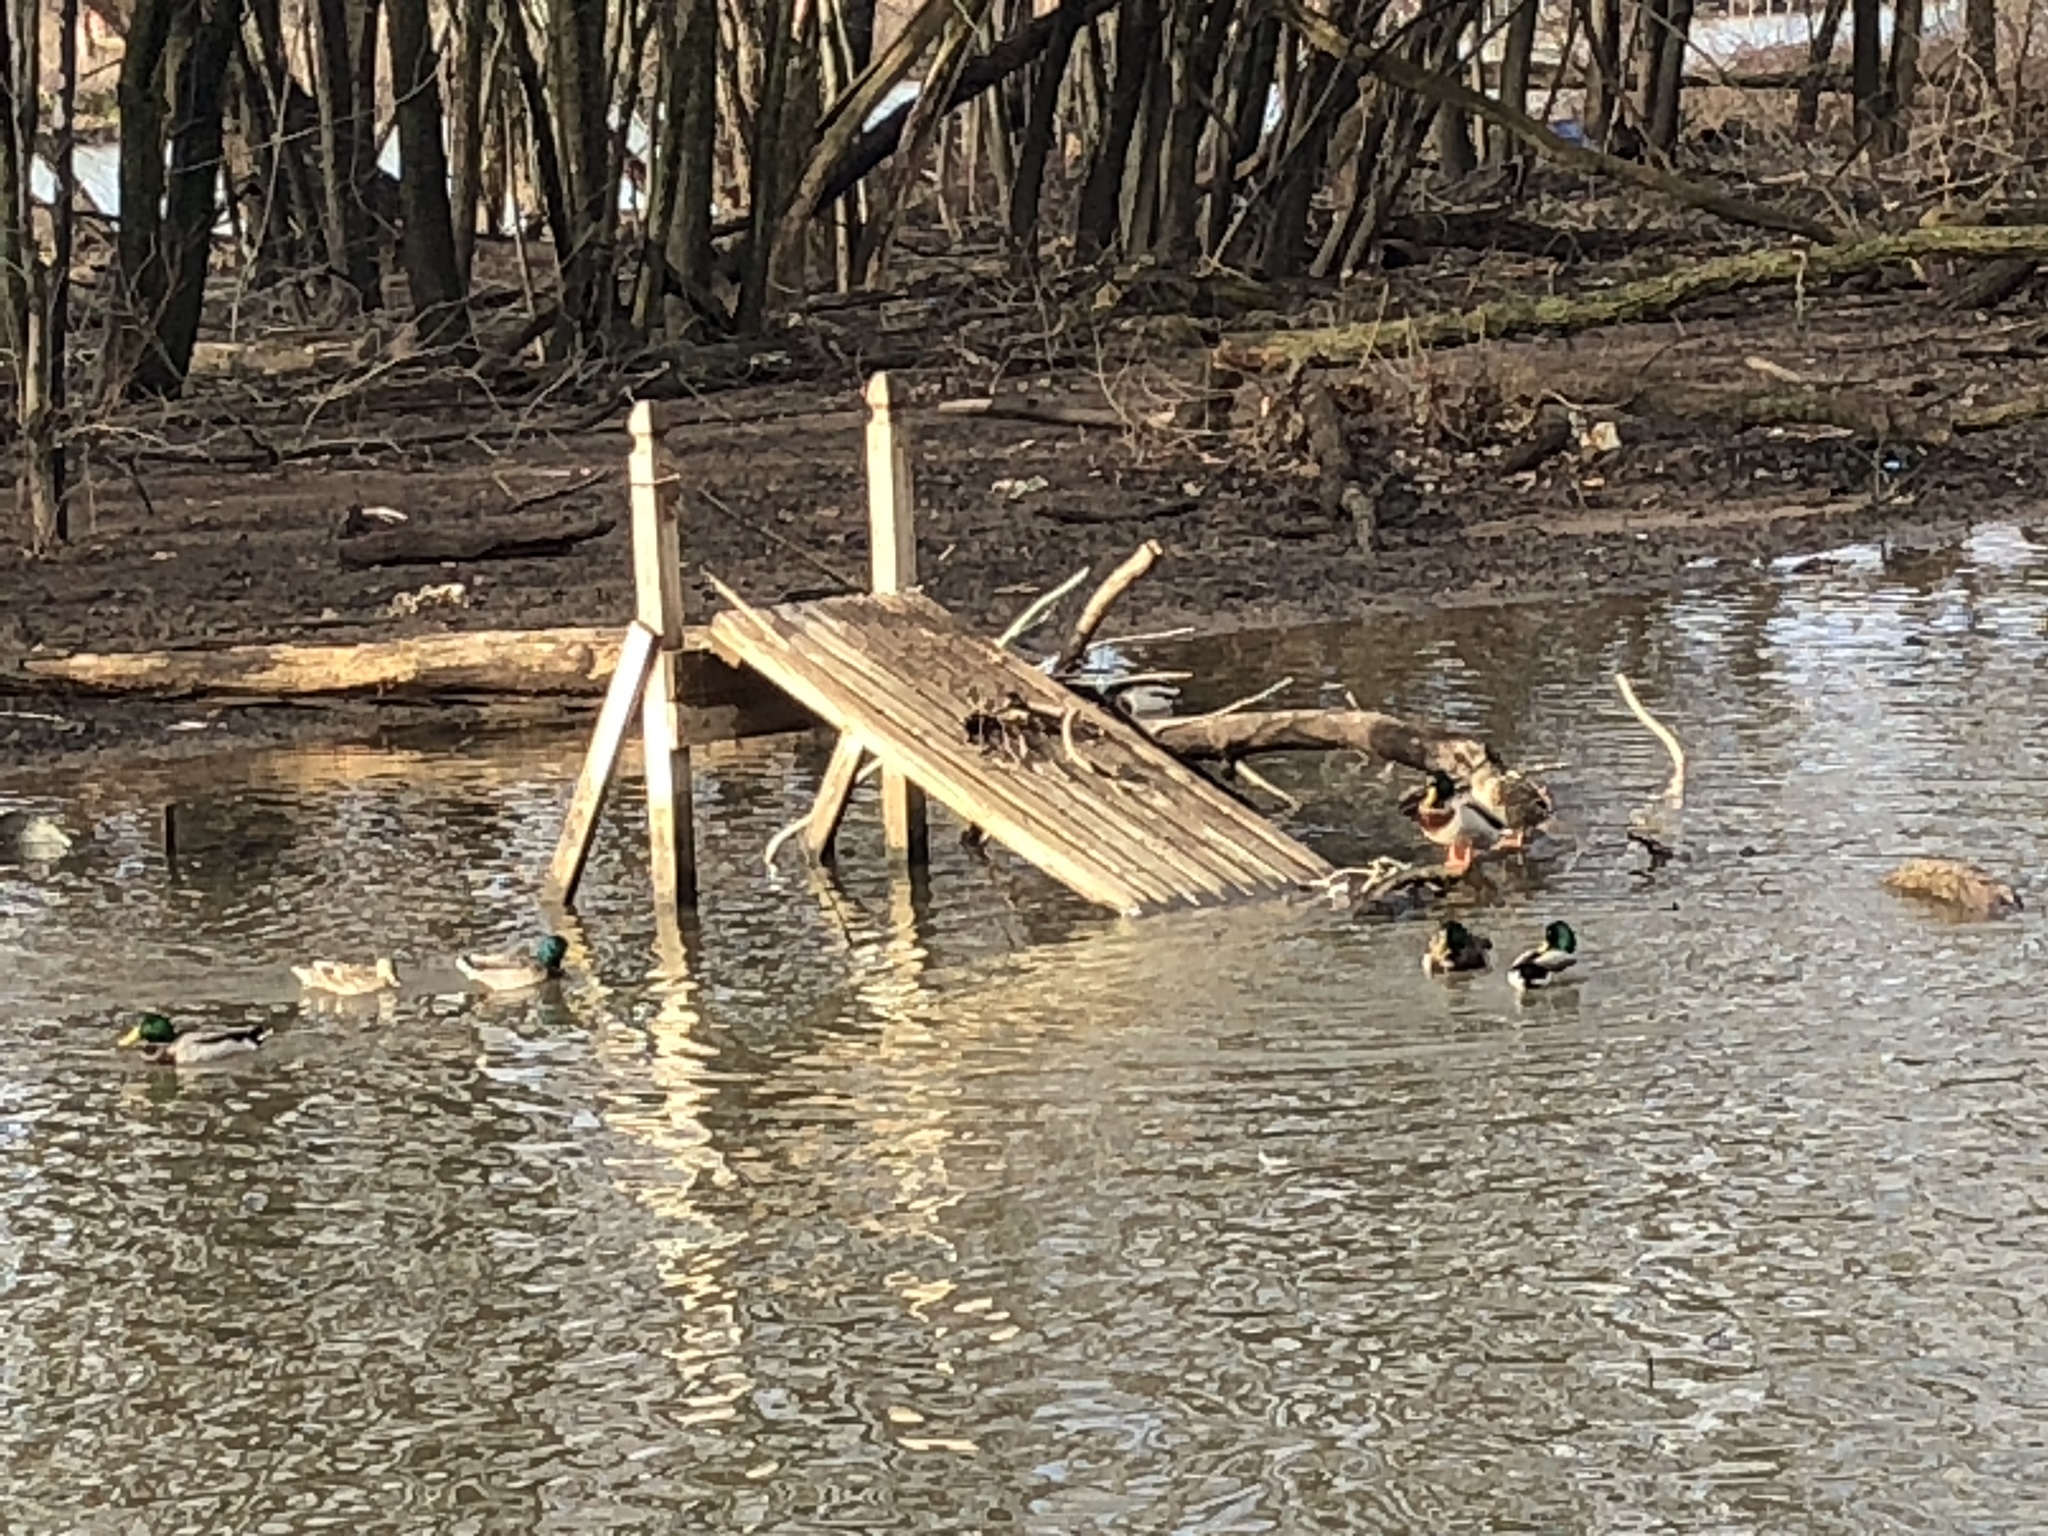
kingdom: Animalia
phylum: Chordata
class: Aves
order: Anseriformes
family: Anatidae
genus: Anas
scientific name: Anas platyrhynchos
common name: Mallard
